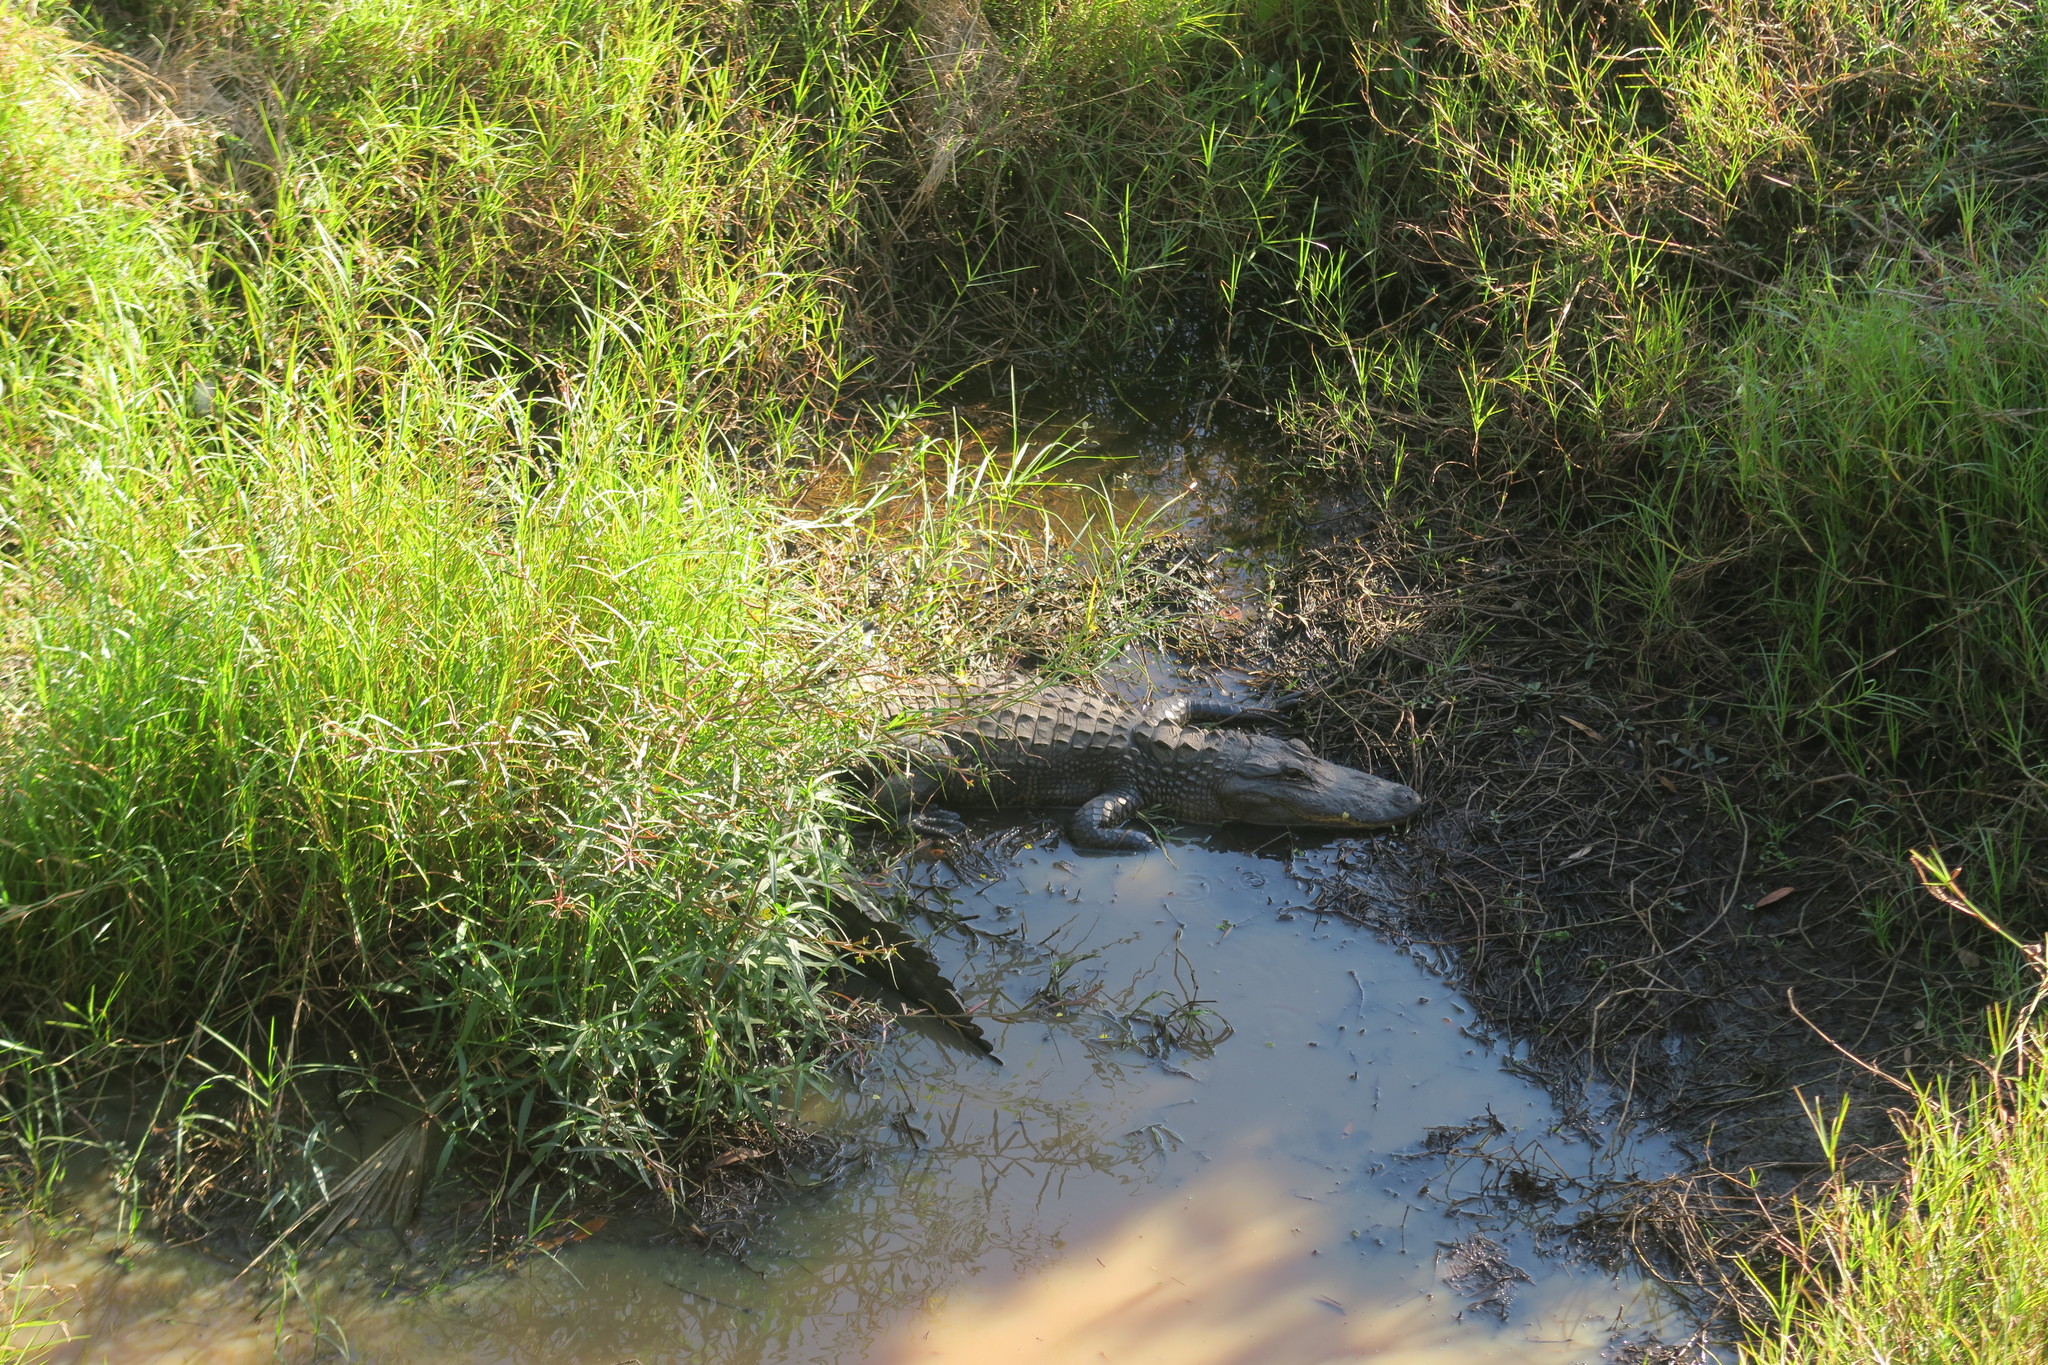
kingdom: Animalia
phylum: Chordata
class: Crocodylia
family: Alligatoridae
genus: Alligator
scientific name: Alligator mississippiensis
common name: American alligator
